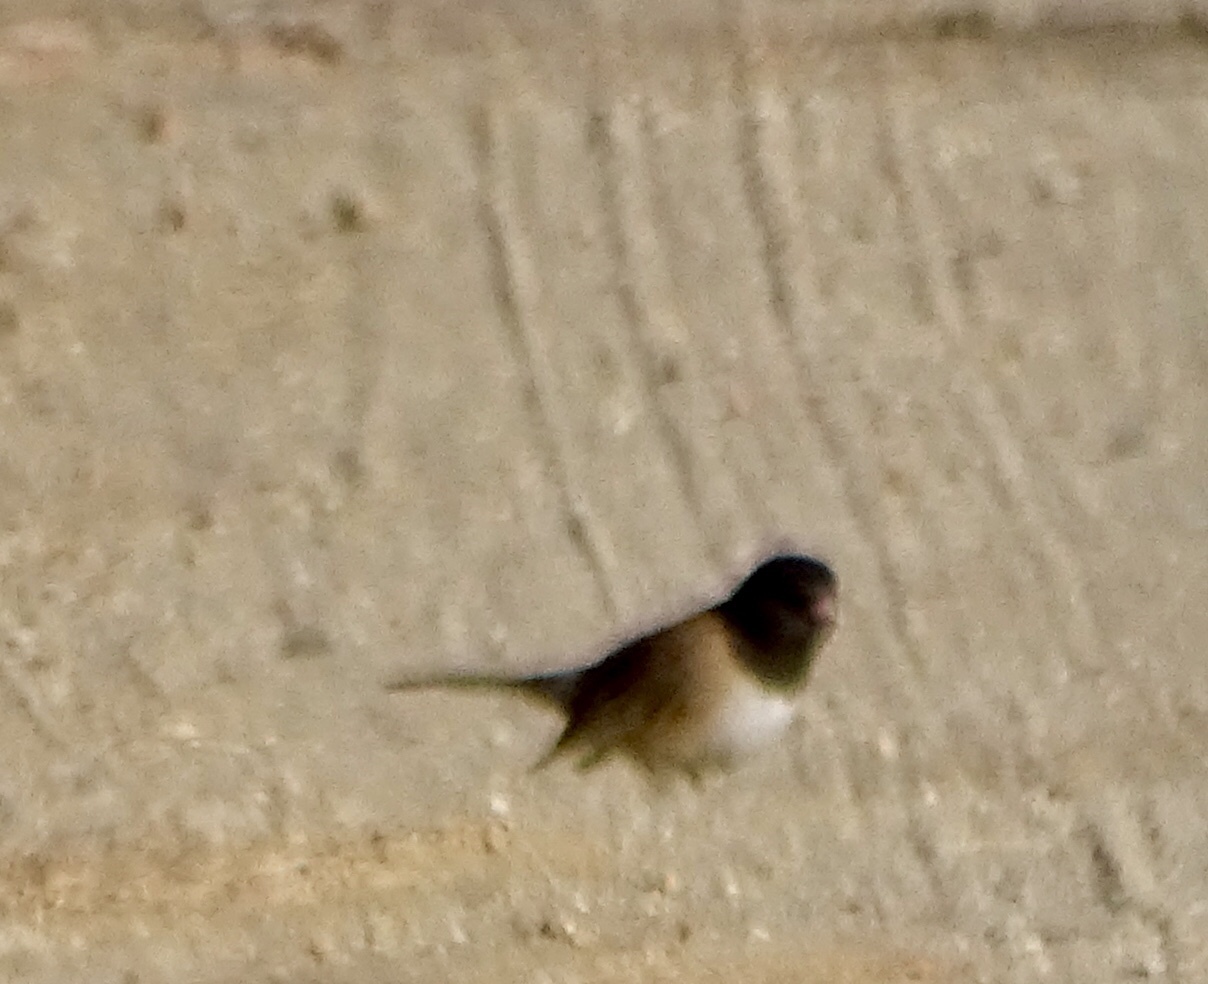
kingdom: Animalia
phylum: Chordata
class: Aves
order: Passeriformes
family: Passerellidae
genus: Junco
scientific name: Junco hyemalis
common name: Dark-eyed junco
